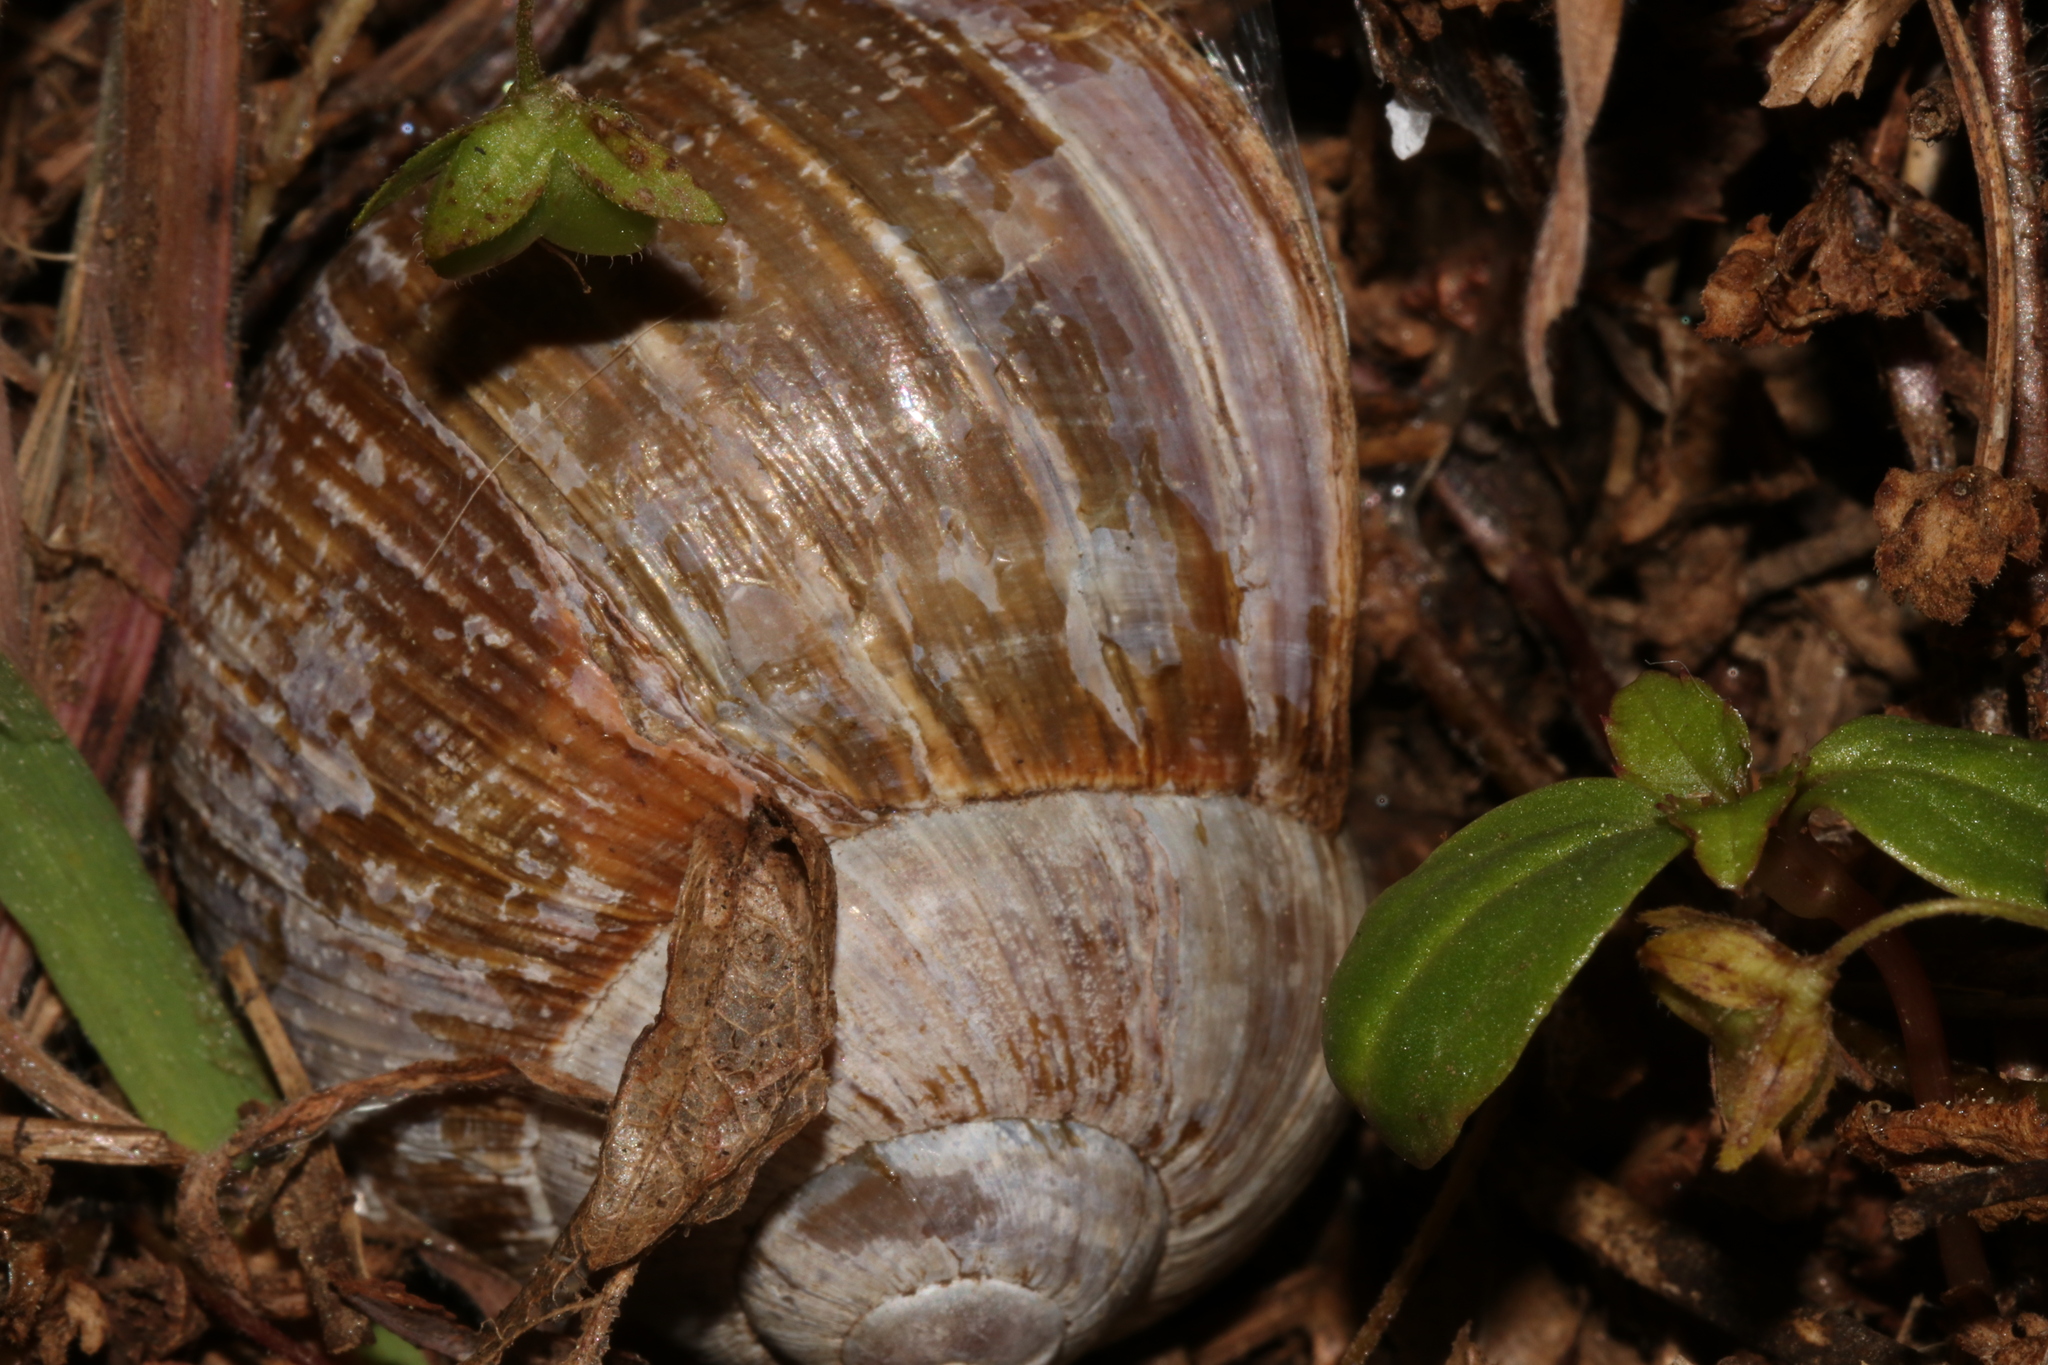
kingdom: Animalia
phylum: Mollusca
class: Gastropoda
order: Stylommatophora
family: Helicidae
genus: Helix
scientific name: Helix pomatia
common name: Roman snail
